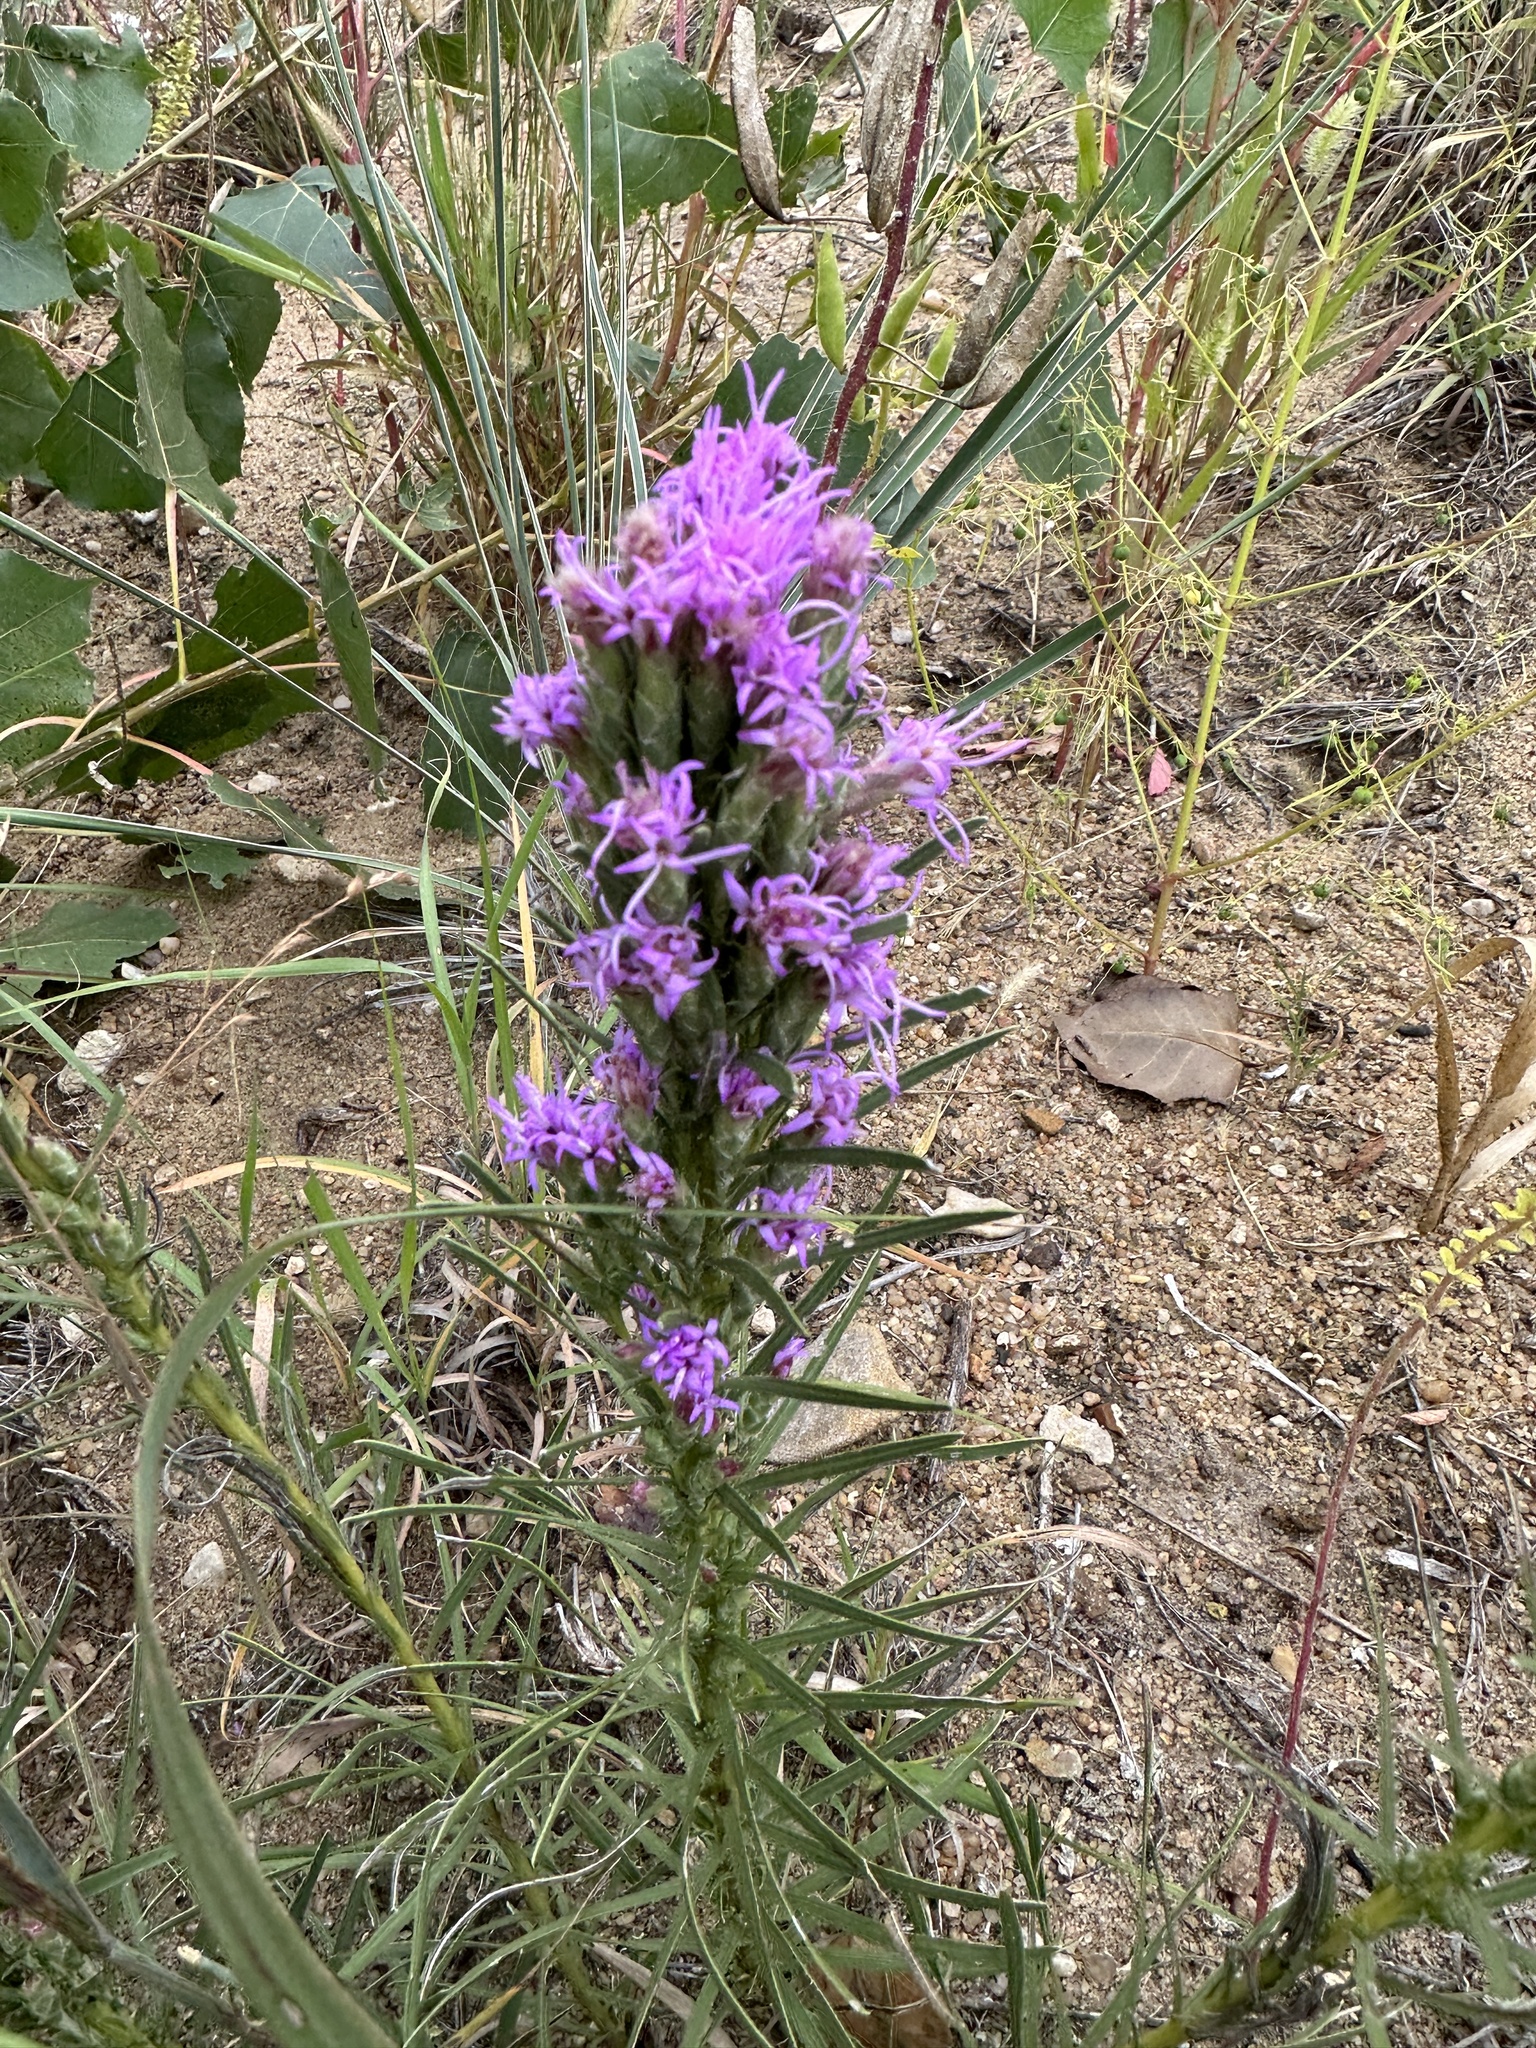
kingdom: Plantae
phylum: Tracheophyta
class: Magnoliopsida
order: Asterales
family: Asteraceae
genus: Liatris
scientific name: Liatris punctata
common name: Dotted gayfeather
